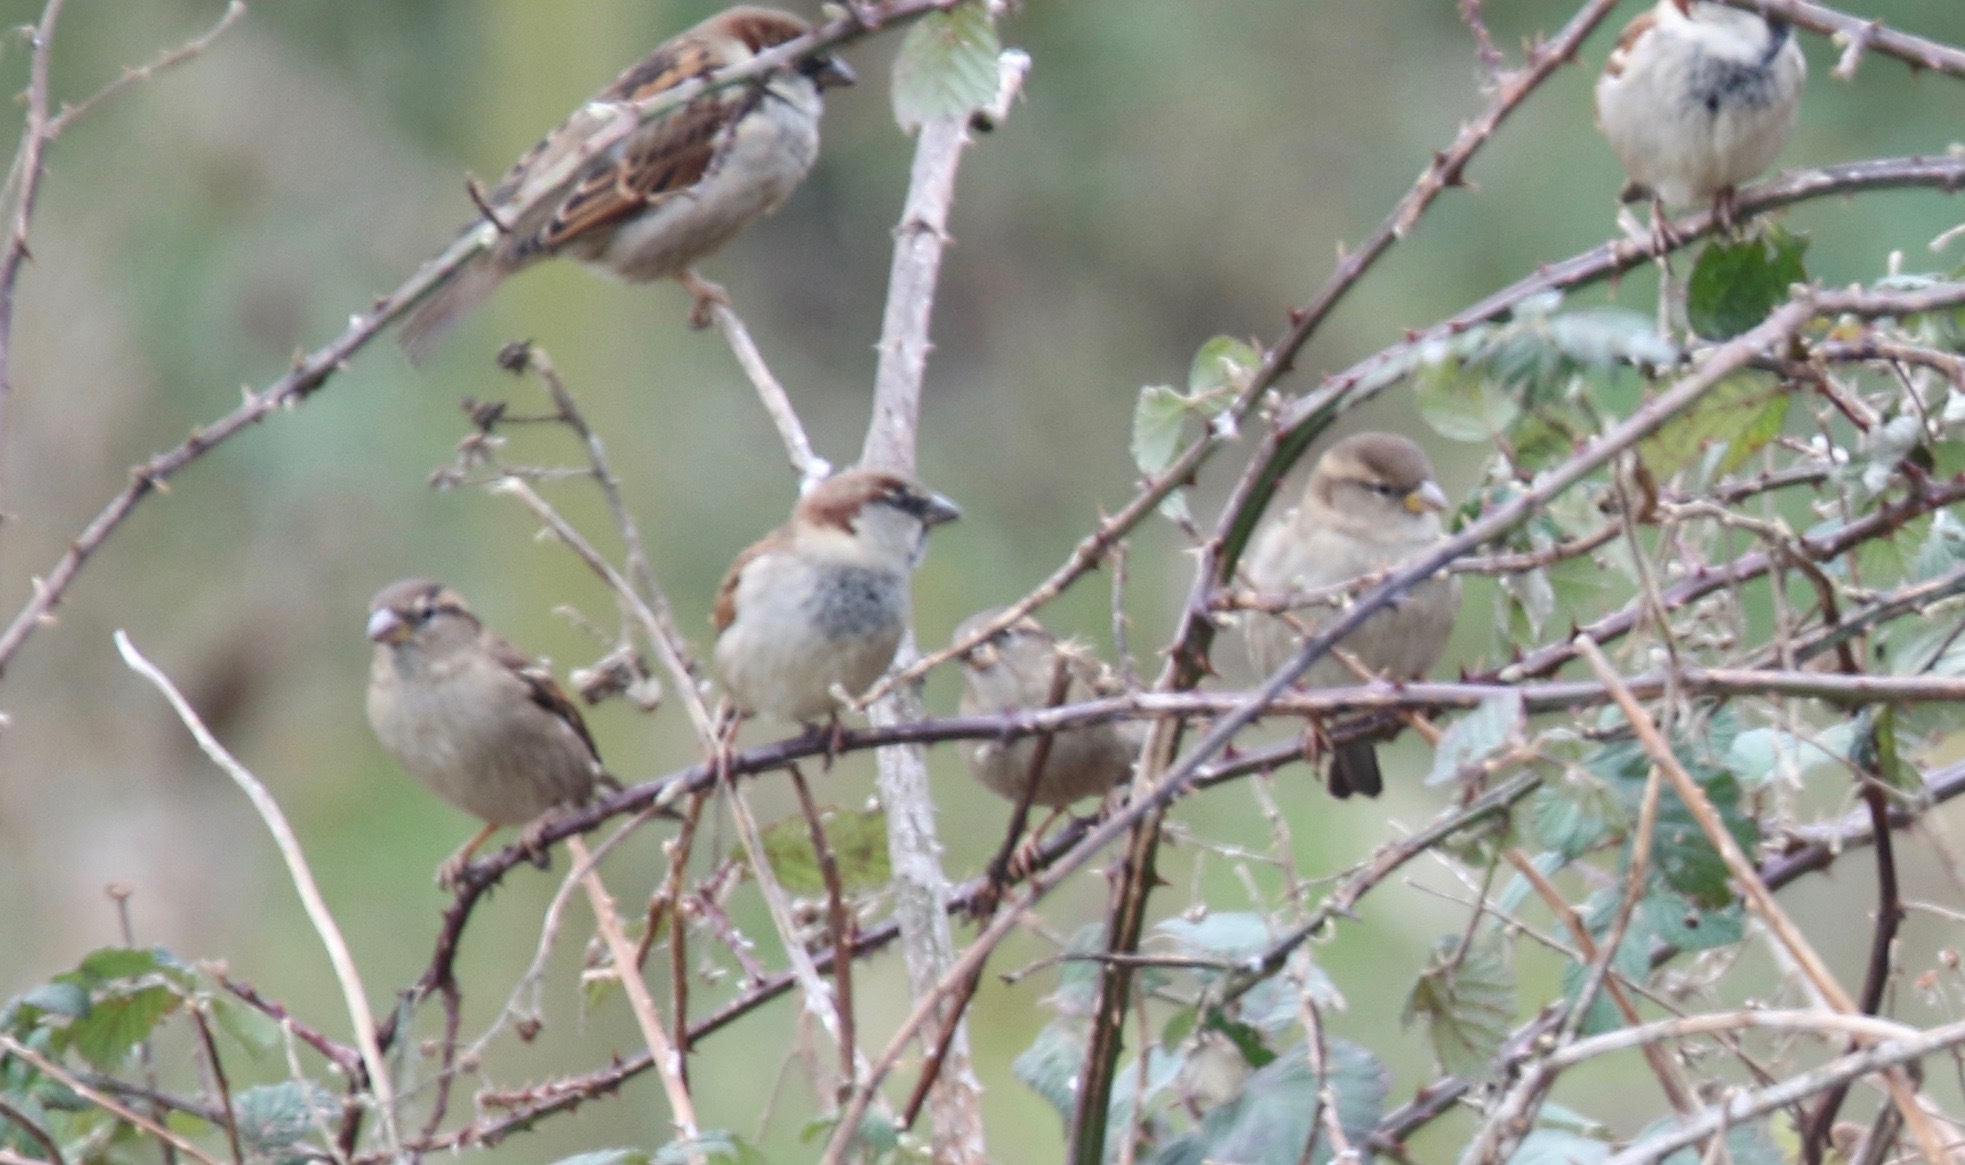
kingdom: Animalia
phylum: Chordata
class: Aves
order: Passeriformes
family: Passeridae
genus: Passer
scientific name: Passer domesticus
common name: House sparrow
